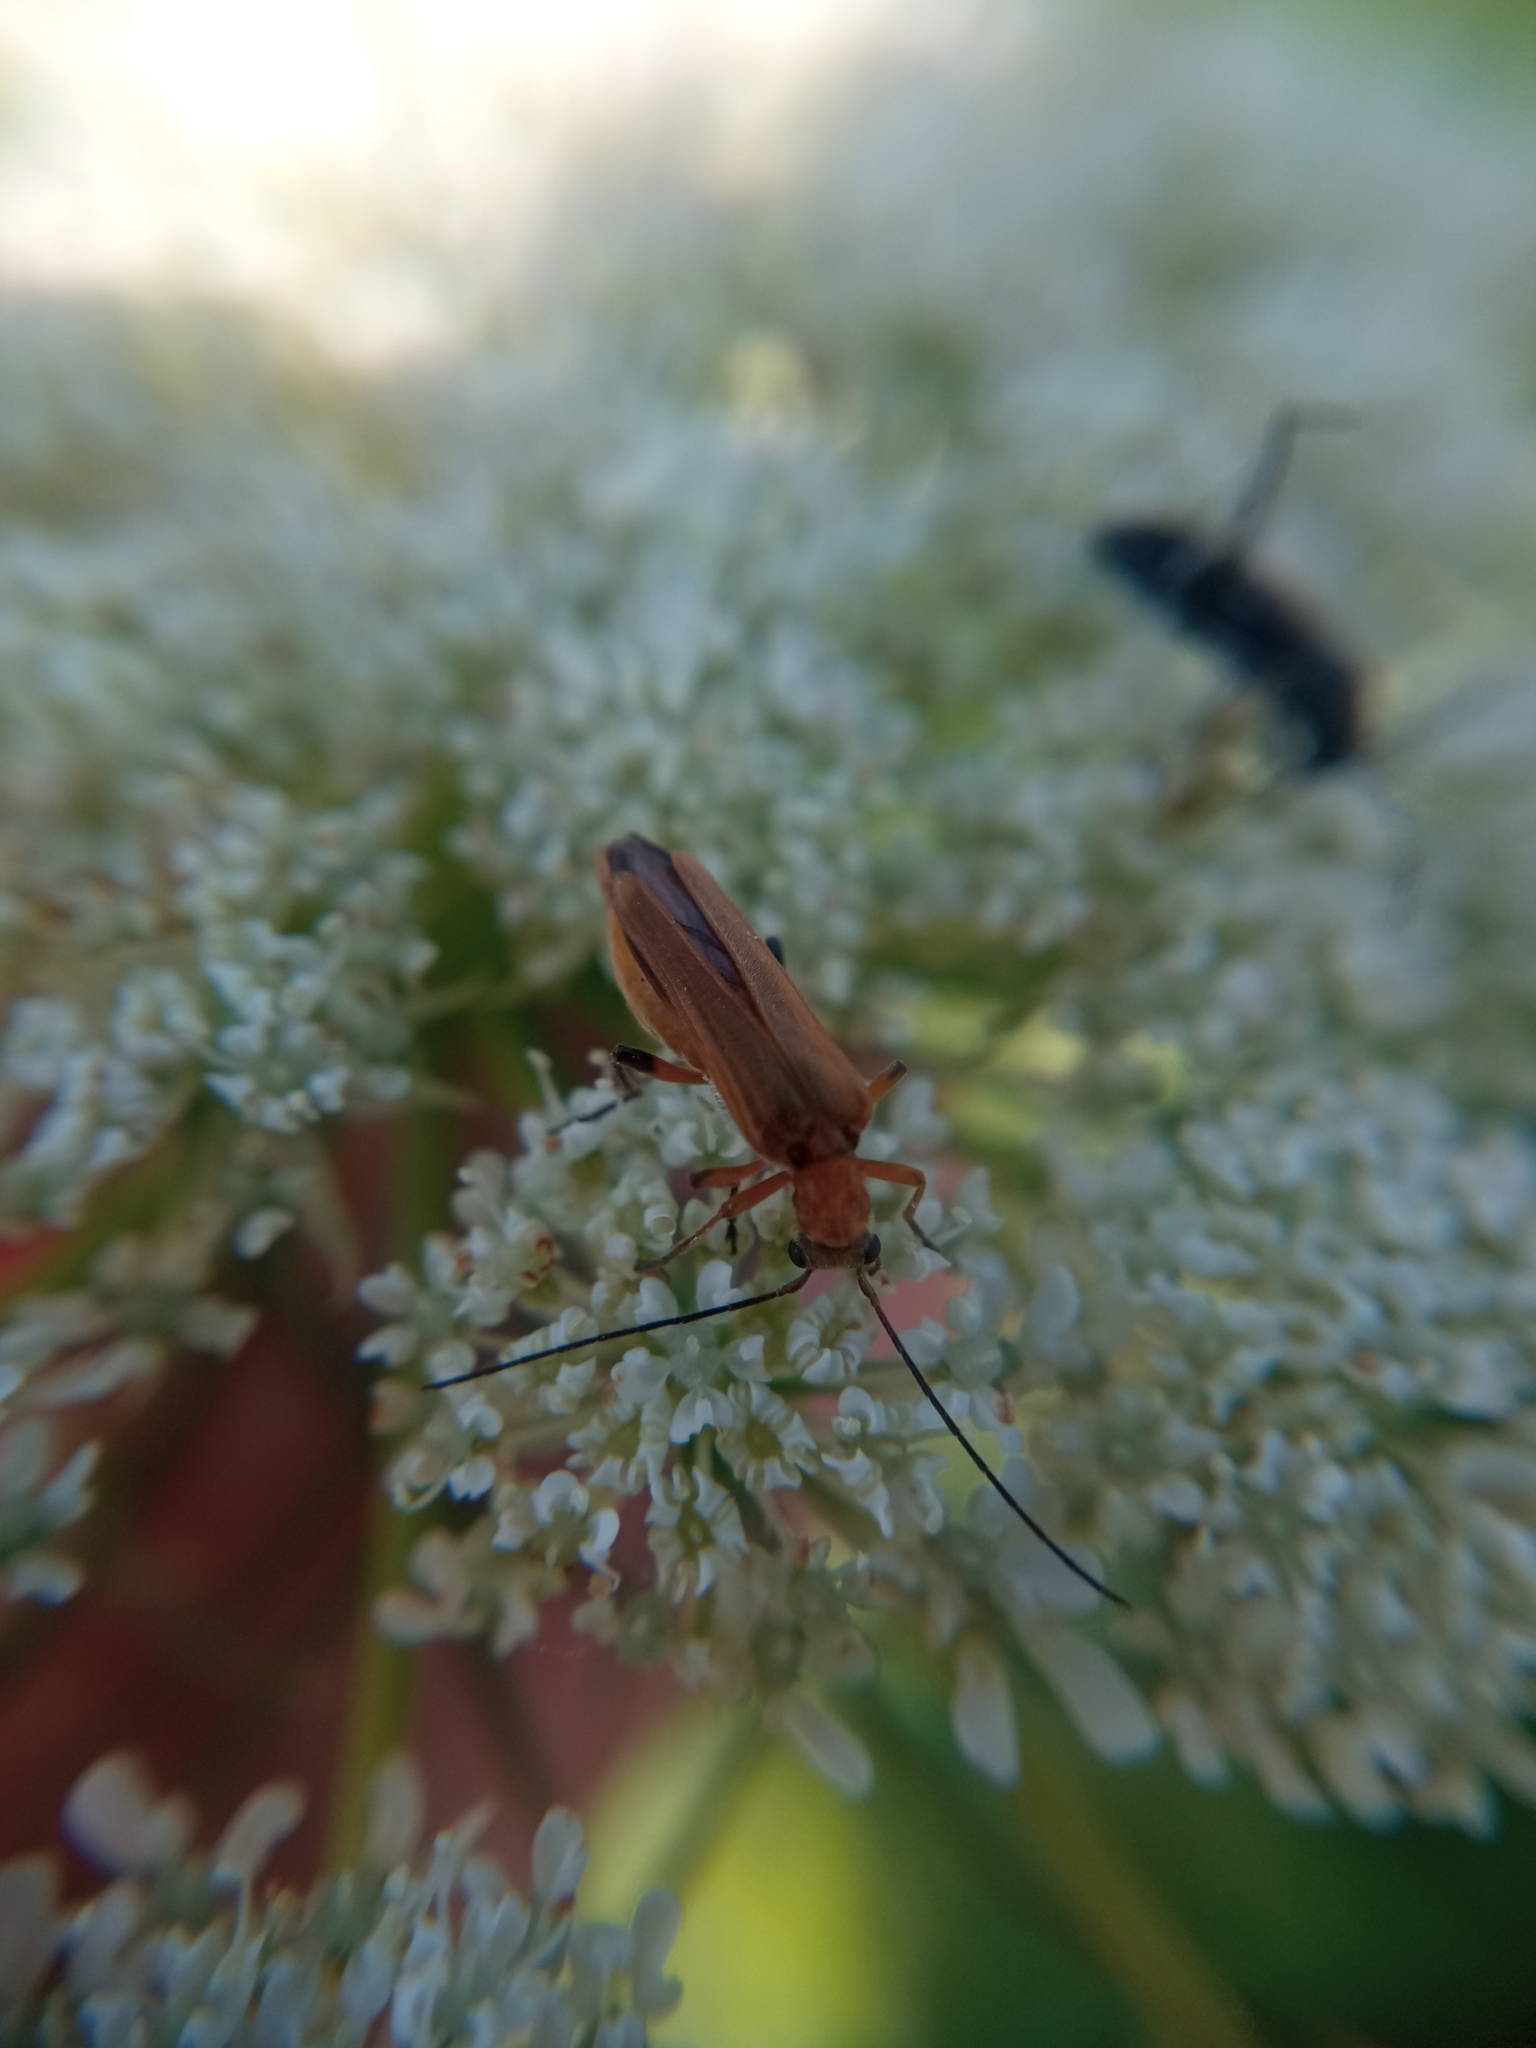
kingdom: Animalia
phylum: Arthropoda
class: Insecta
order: Coleoptera
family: Oedemeridae
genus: Oedemera
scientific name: Oedemera podagrariae
